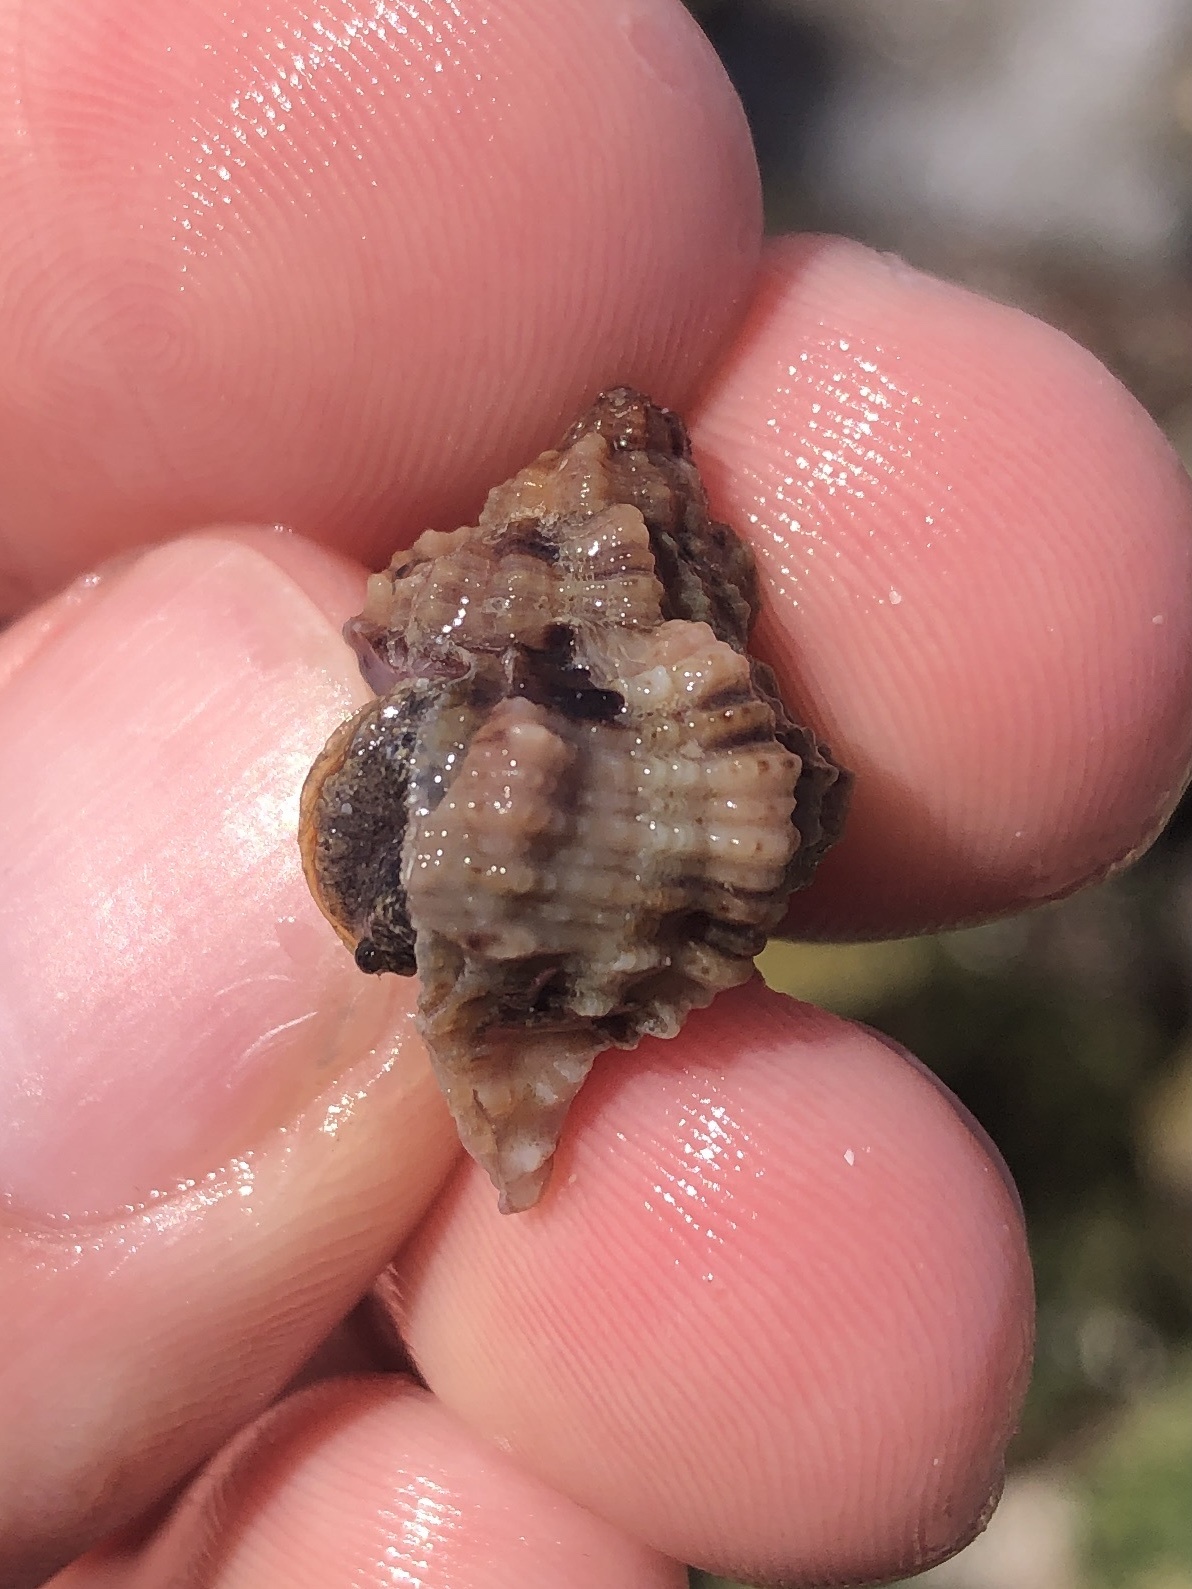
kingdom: Animalia
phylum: Mollusca
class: Gastropoda
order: Neogastropoda
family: Muricidae
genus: Phyllonotus
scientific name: Phyllonotus pomum
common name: Apple murex
